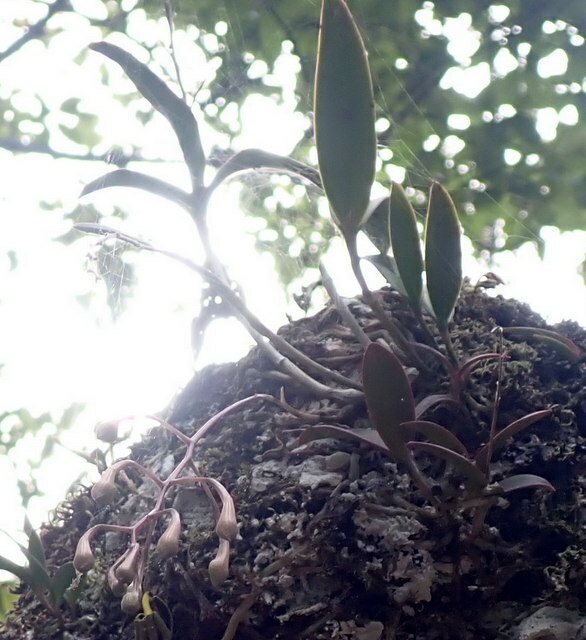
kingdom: Plantae
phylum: Tracheophyta
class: Liliopsida
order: Asparagales
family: Orchidaceae
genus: Epidendrum
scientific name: Epidendrum conopseum
